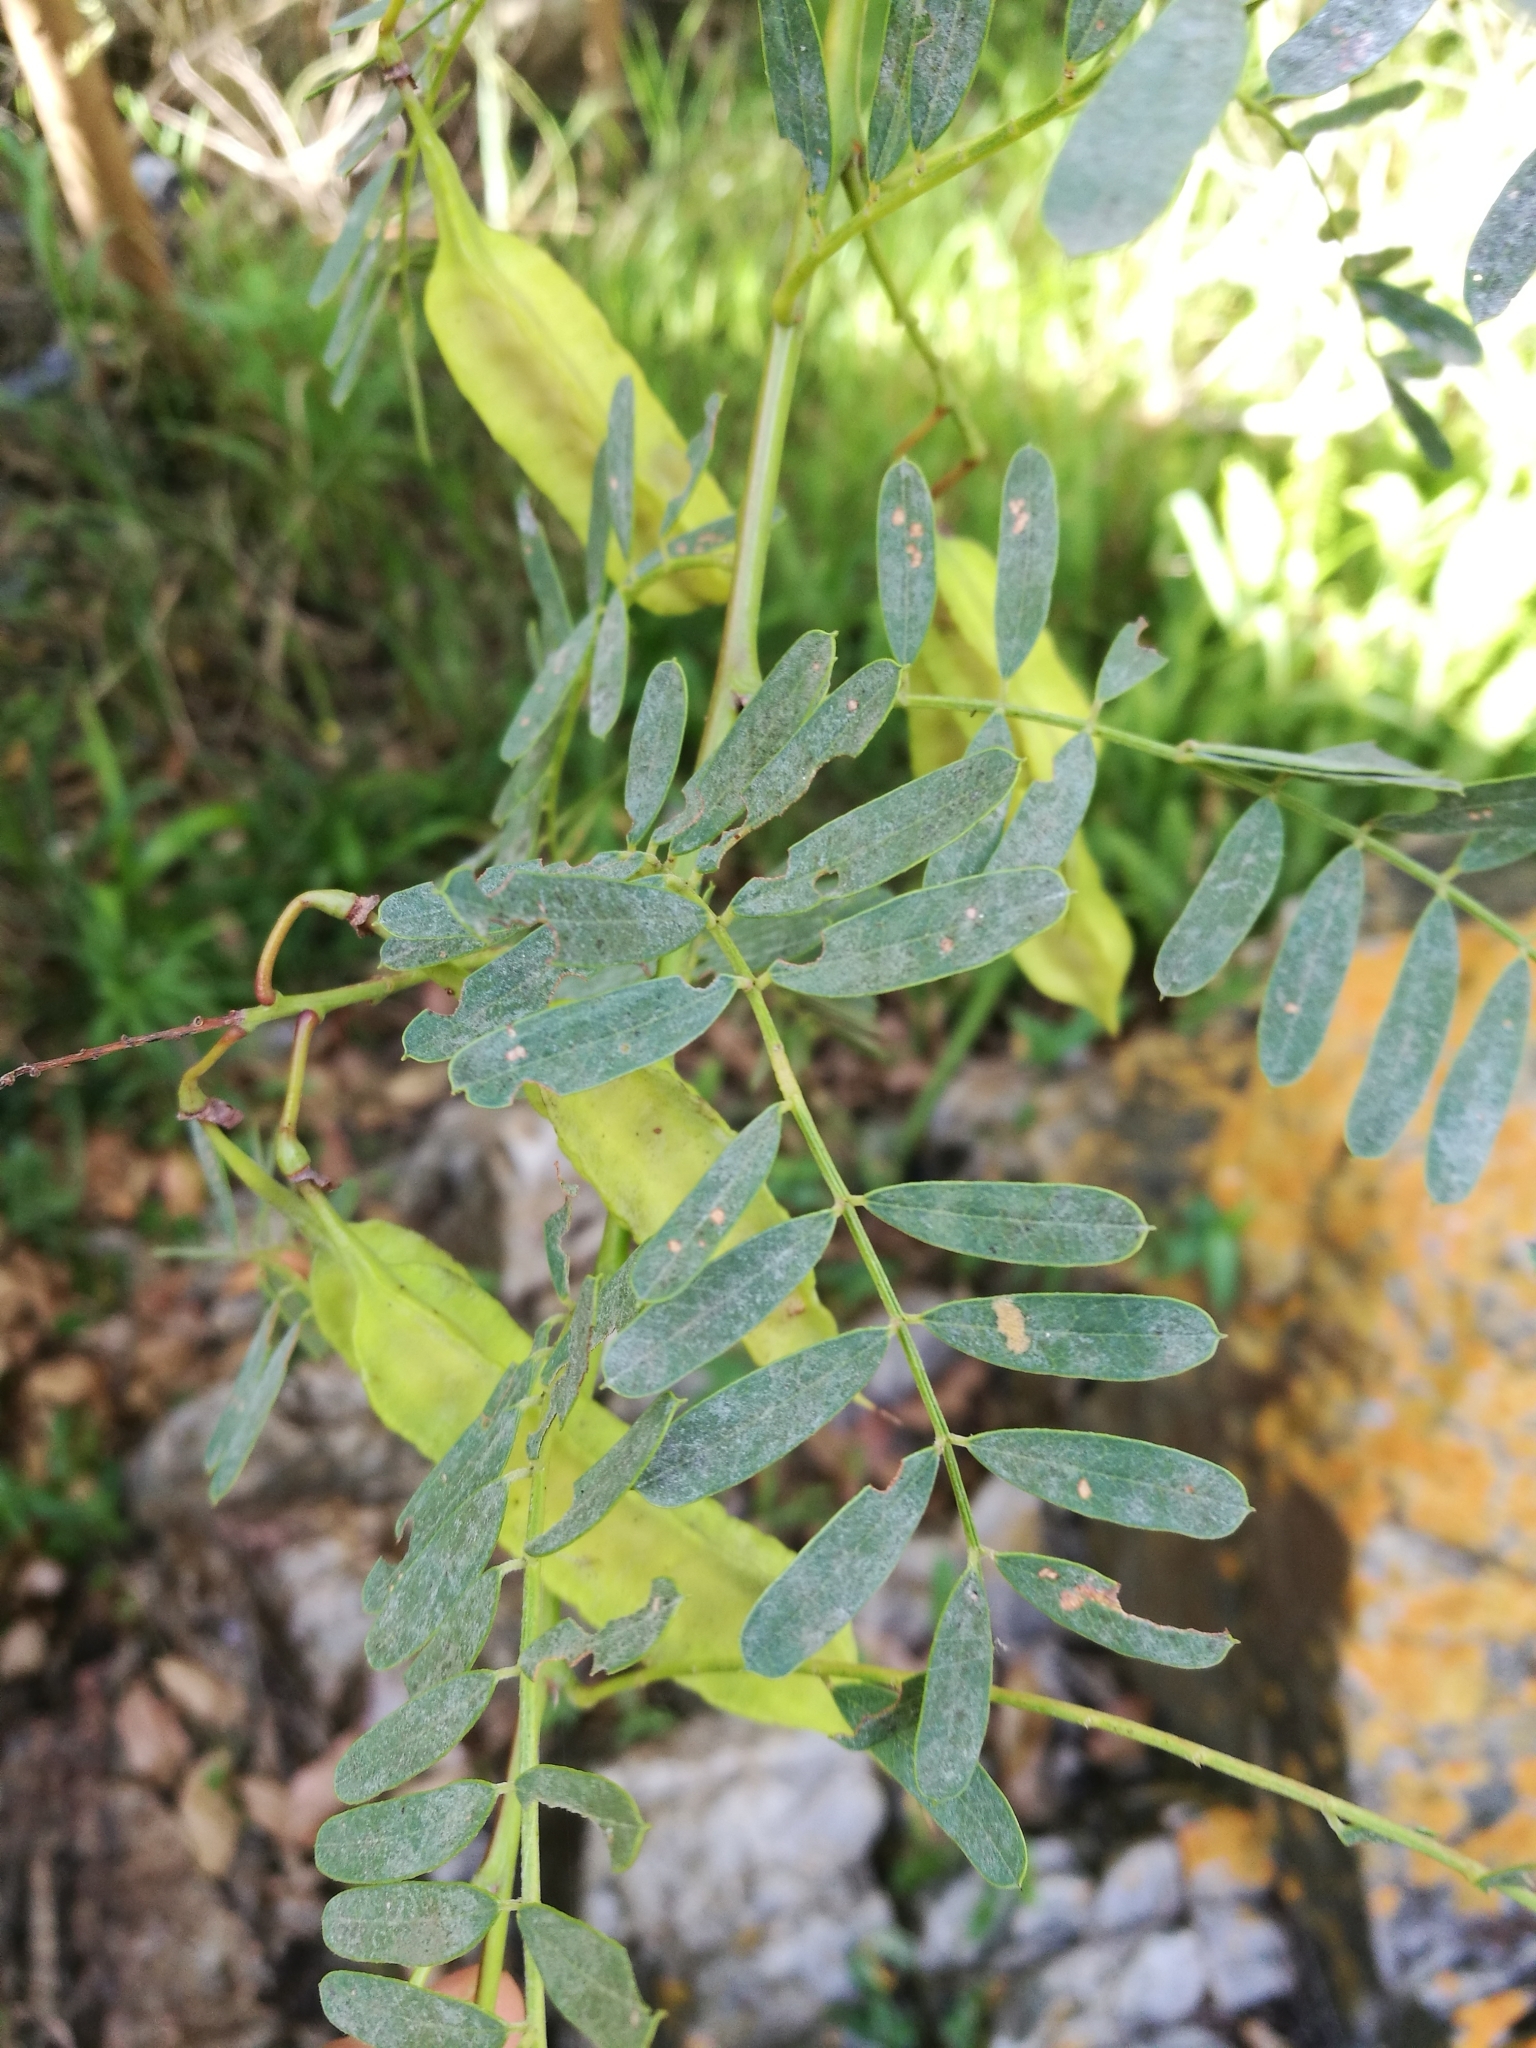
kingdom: Plantae
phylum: Tracheophyta
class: Magnoliopsida
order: Fabales
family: Fabaceae
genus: Sesbania
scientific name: Sesbania punicea
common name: Rattlebox
